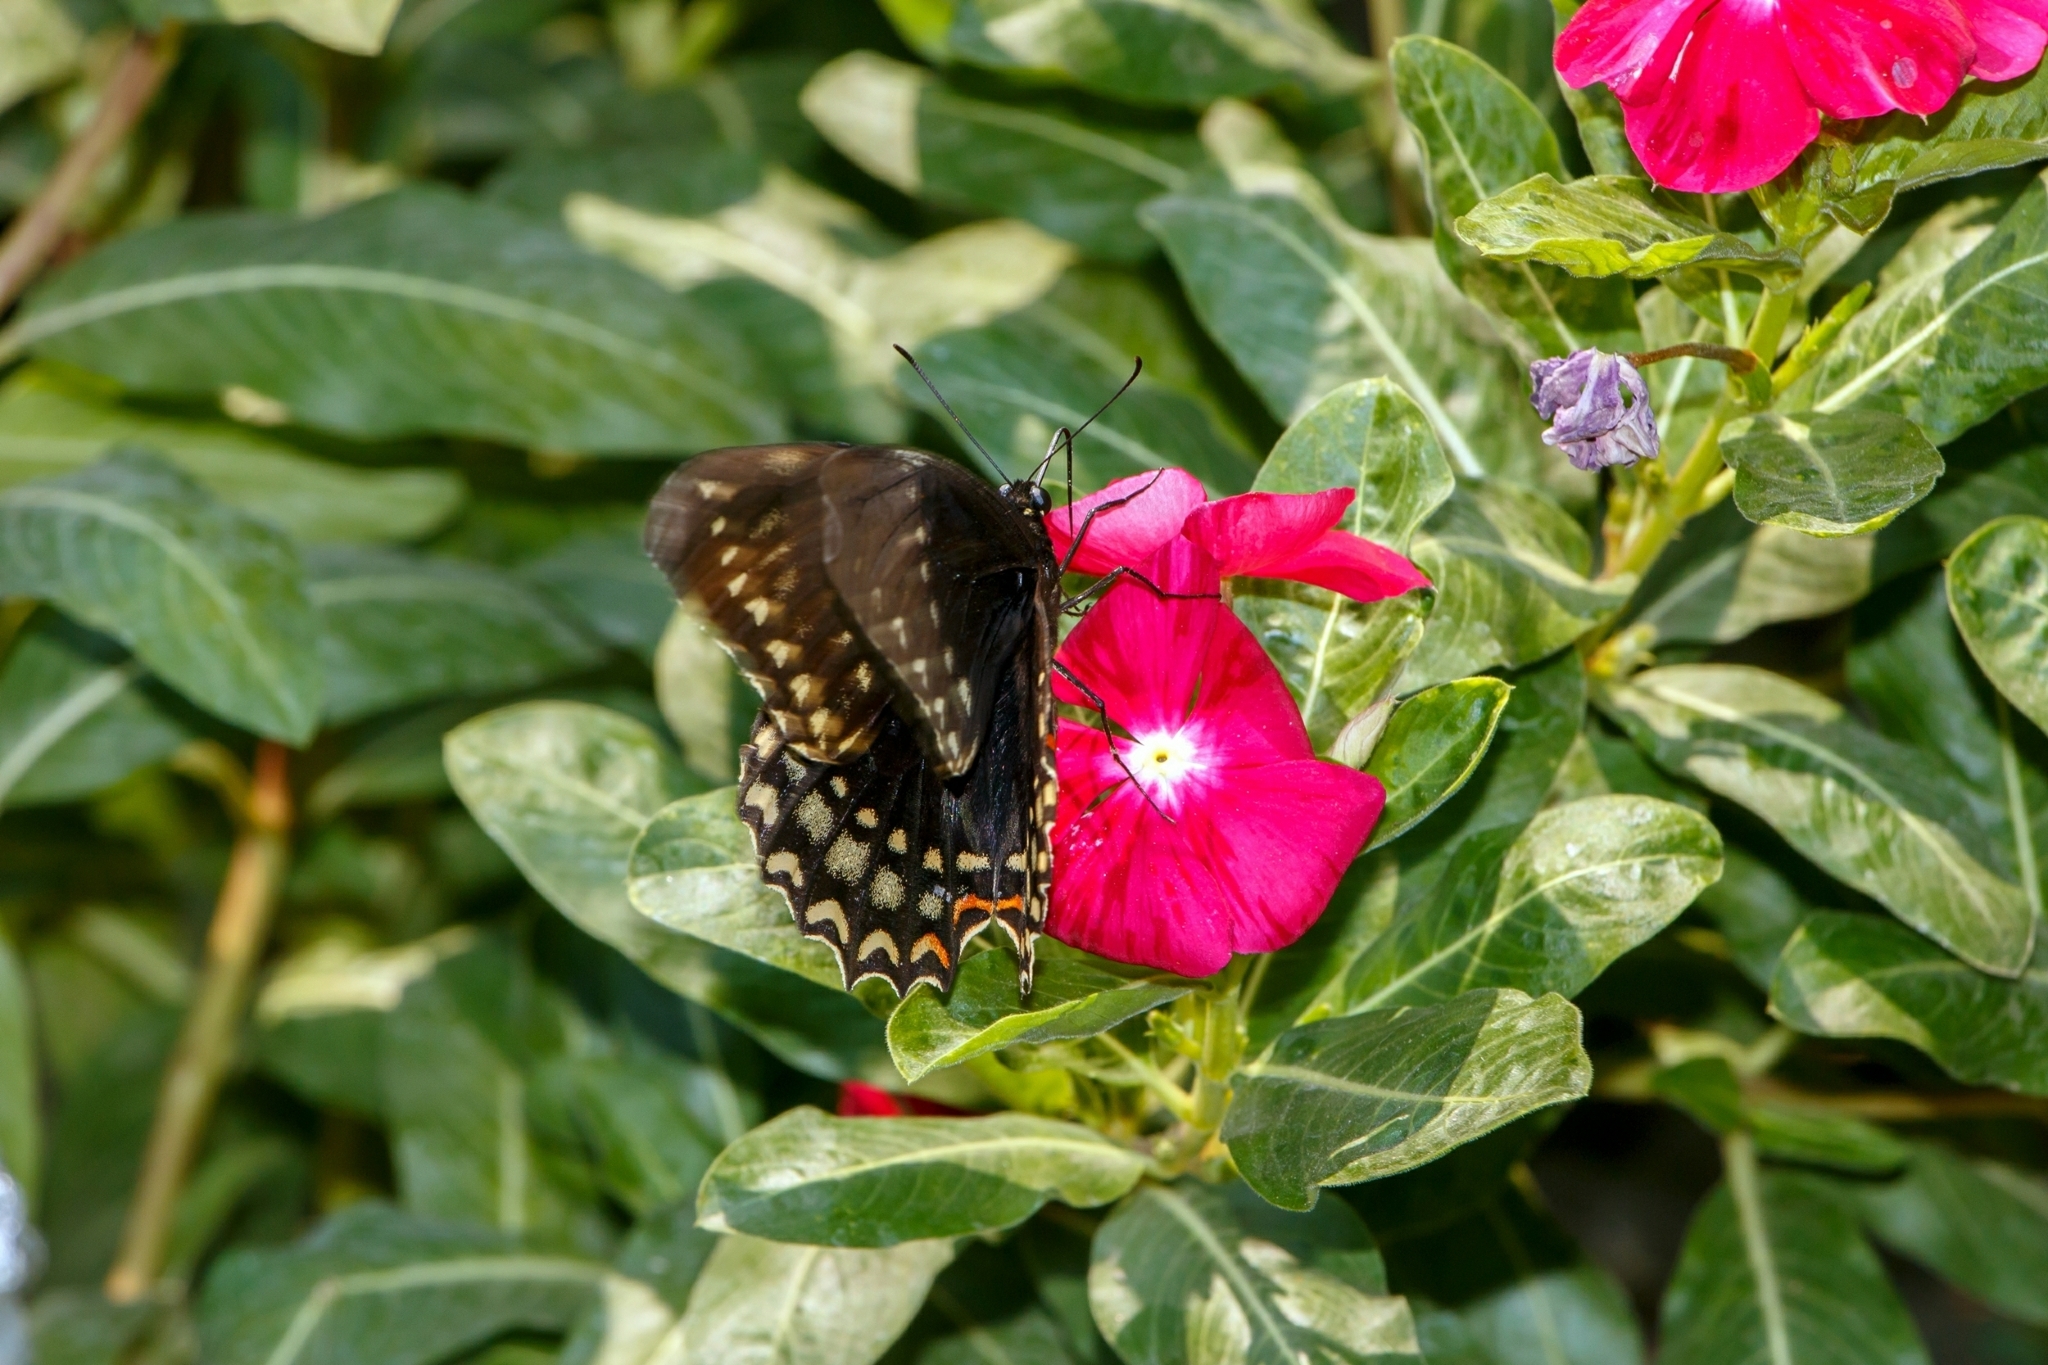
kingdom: Animalia
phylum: Arthropoda
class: Insecta
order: Lepidoptera
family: Papilionidae
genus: Papilio
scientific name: Papilio victorinus
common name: Victorine swallowtail
